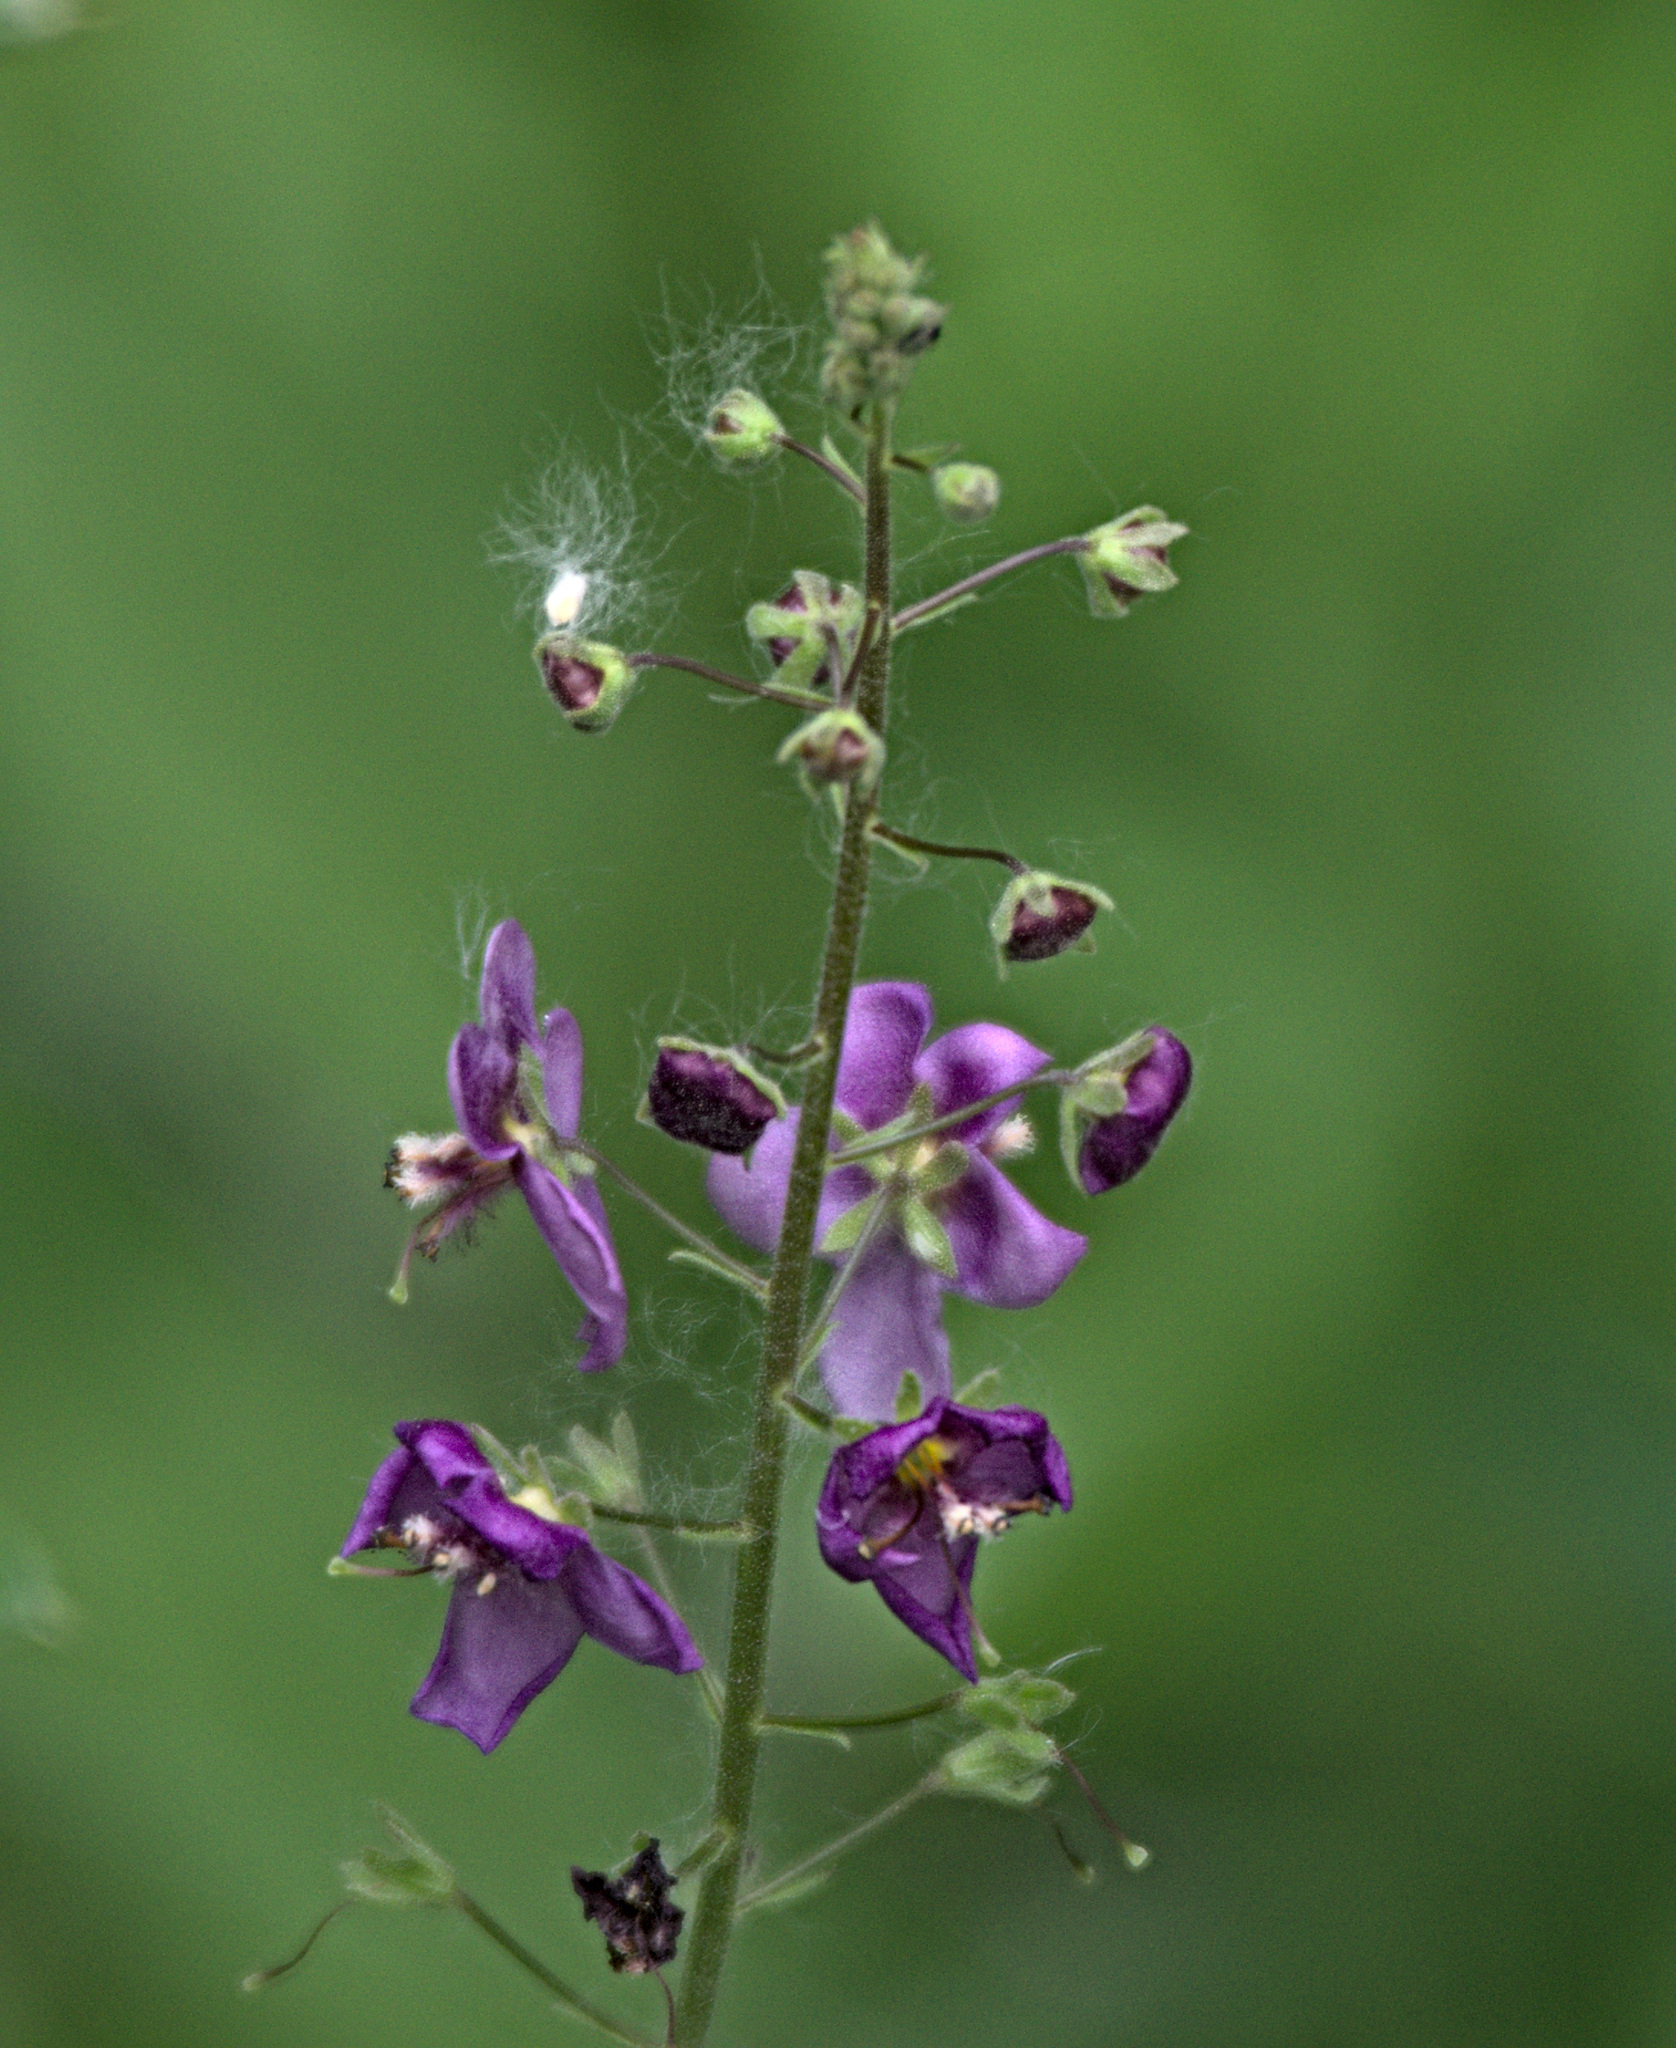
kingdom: Plantae
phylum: Tracheophyta
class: Magnoliopsida
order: Lamiales
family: Scrophulariaceae
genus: Verbascum
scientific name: Verbascum phoeniceum
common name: Purple mullein
